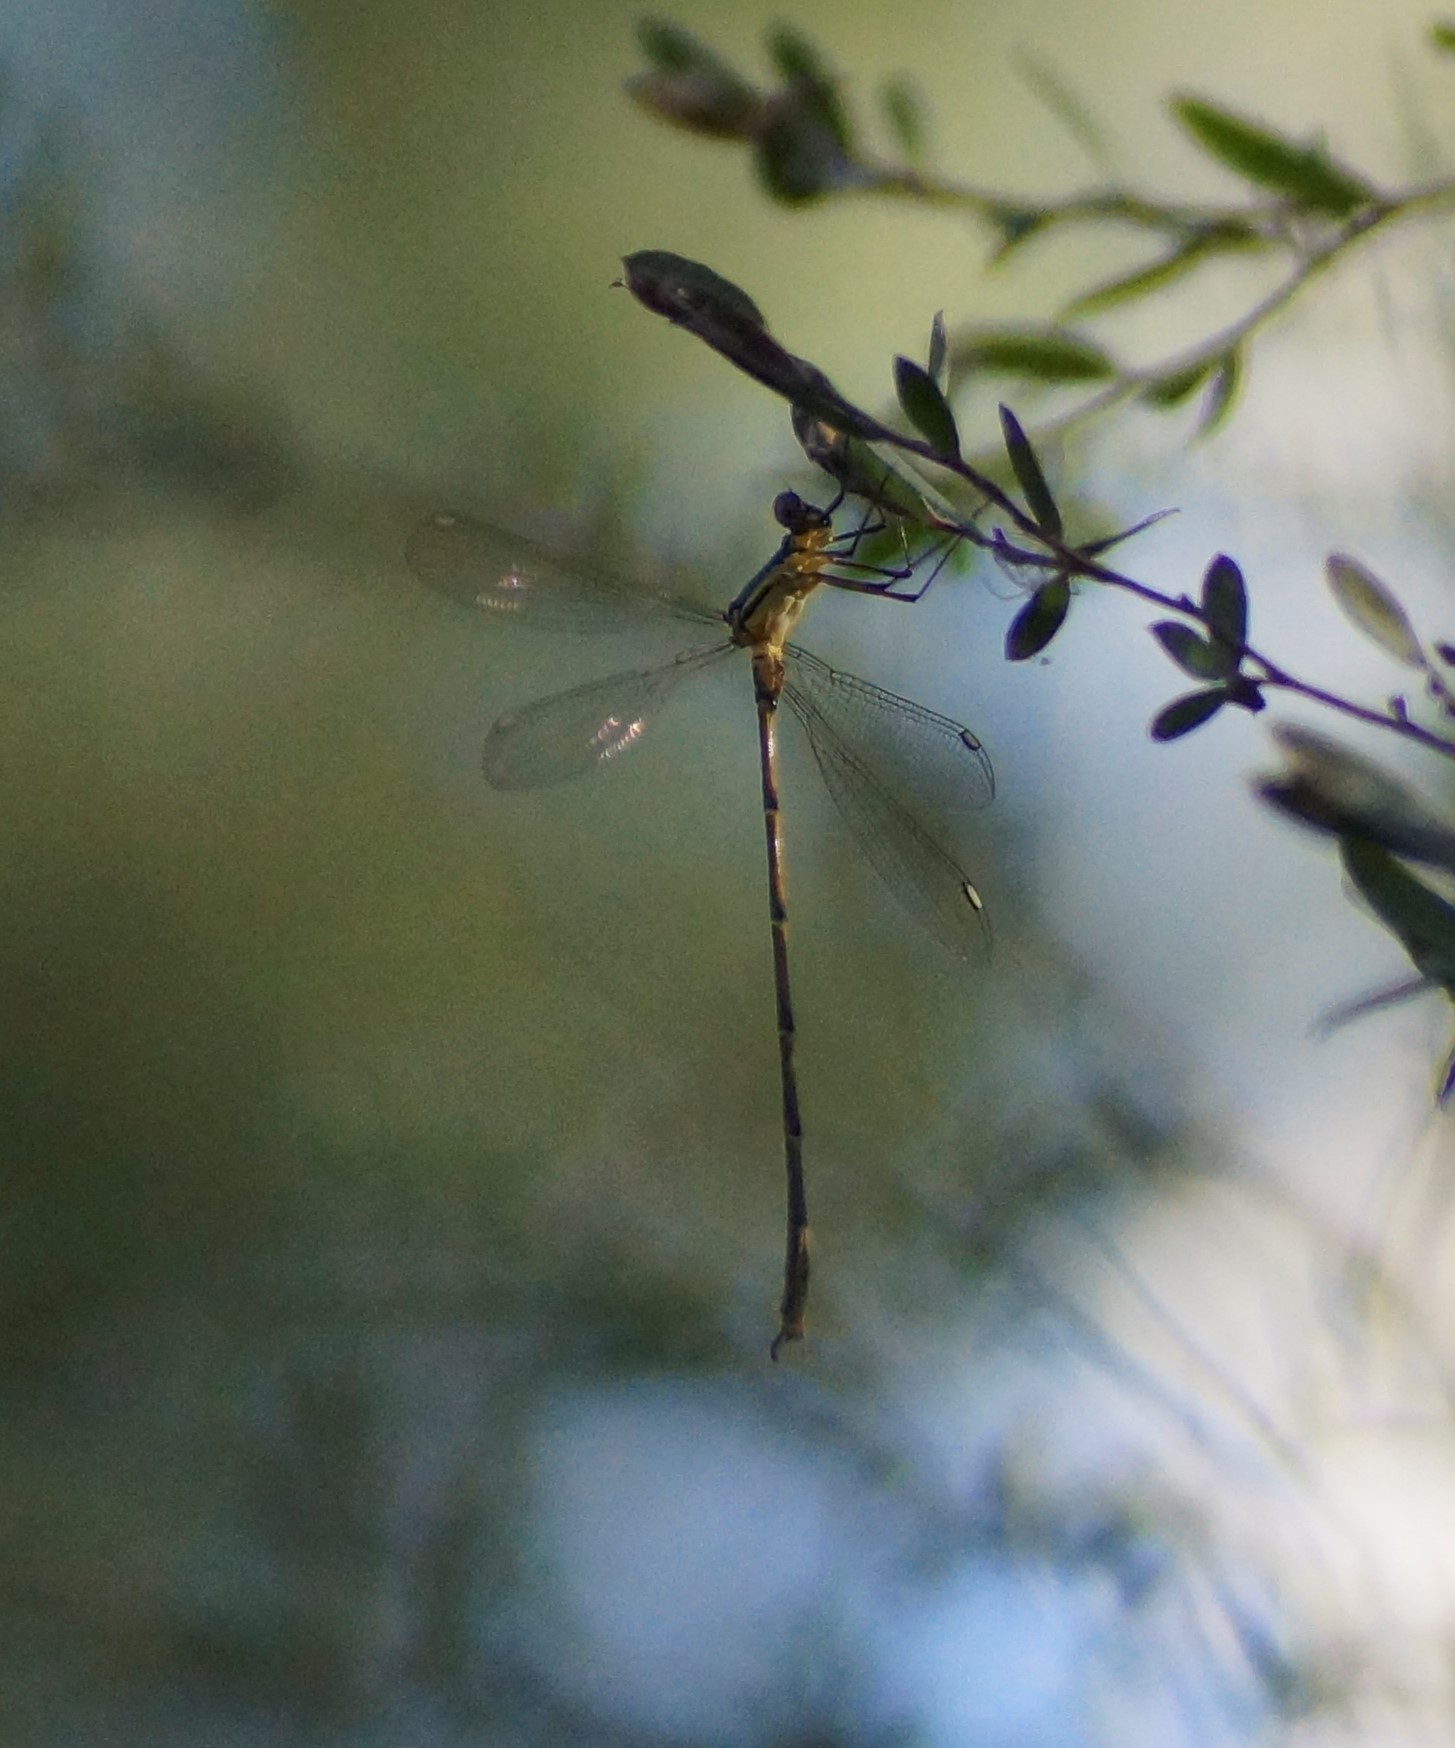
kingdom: Animalia
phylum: Arthropoda
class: Insecta
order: Odonata
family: Synlestidae
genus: Synlestes
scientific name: Synlestes weyersii
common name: Bronze needle
